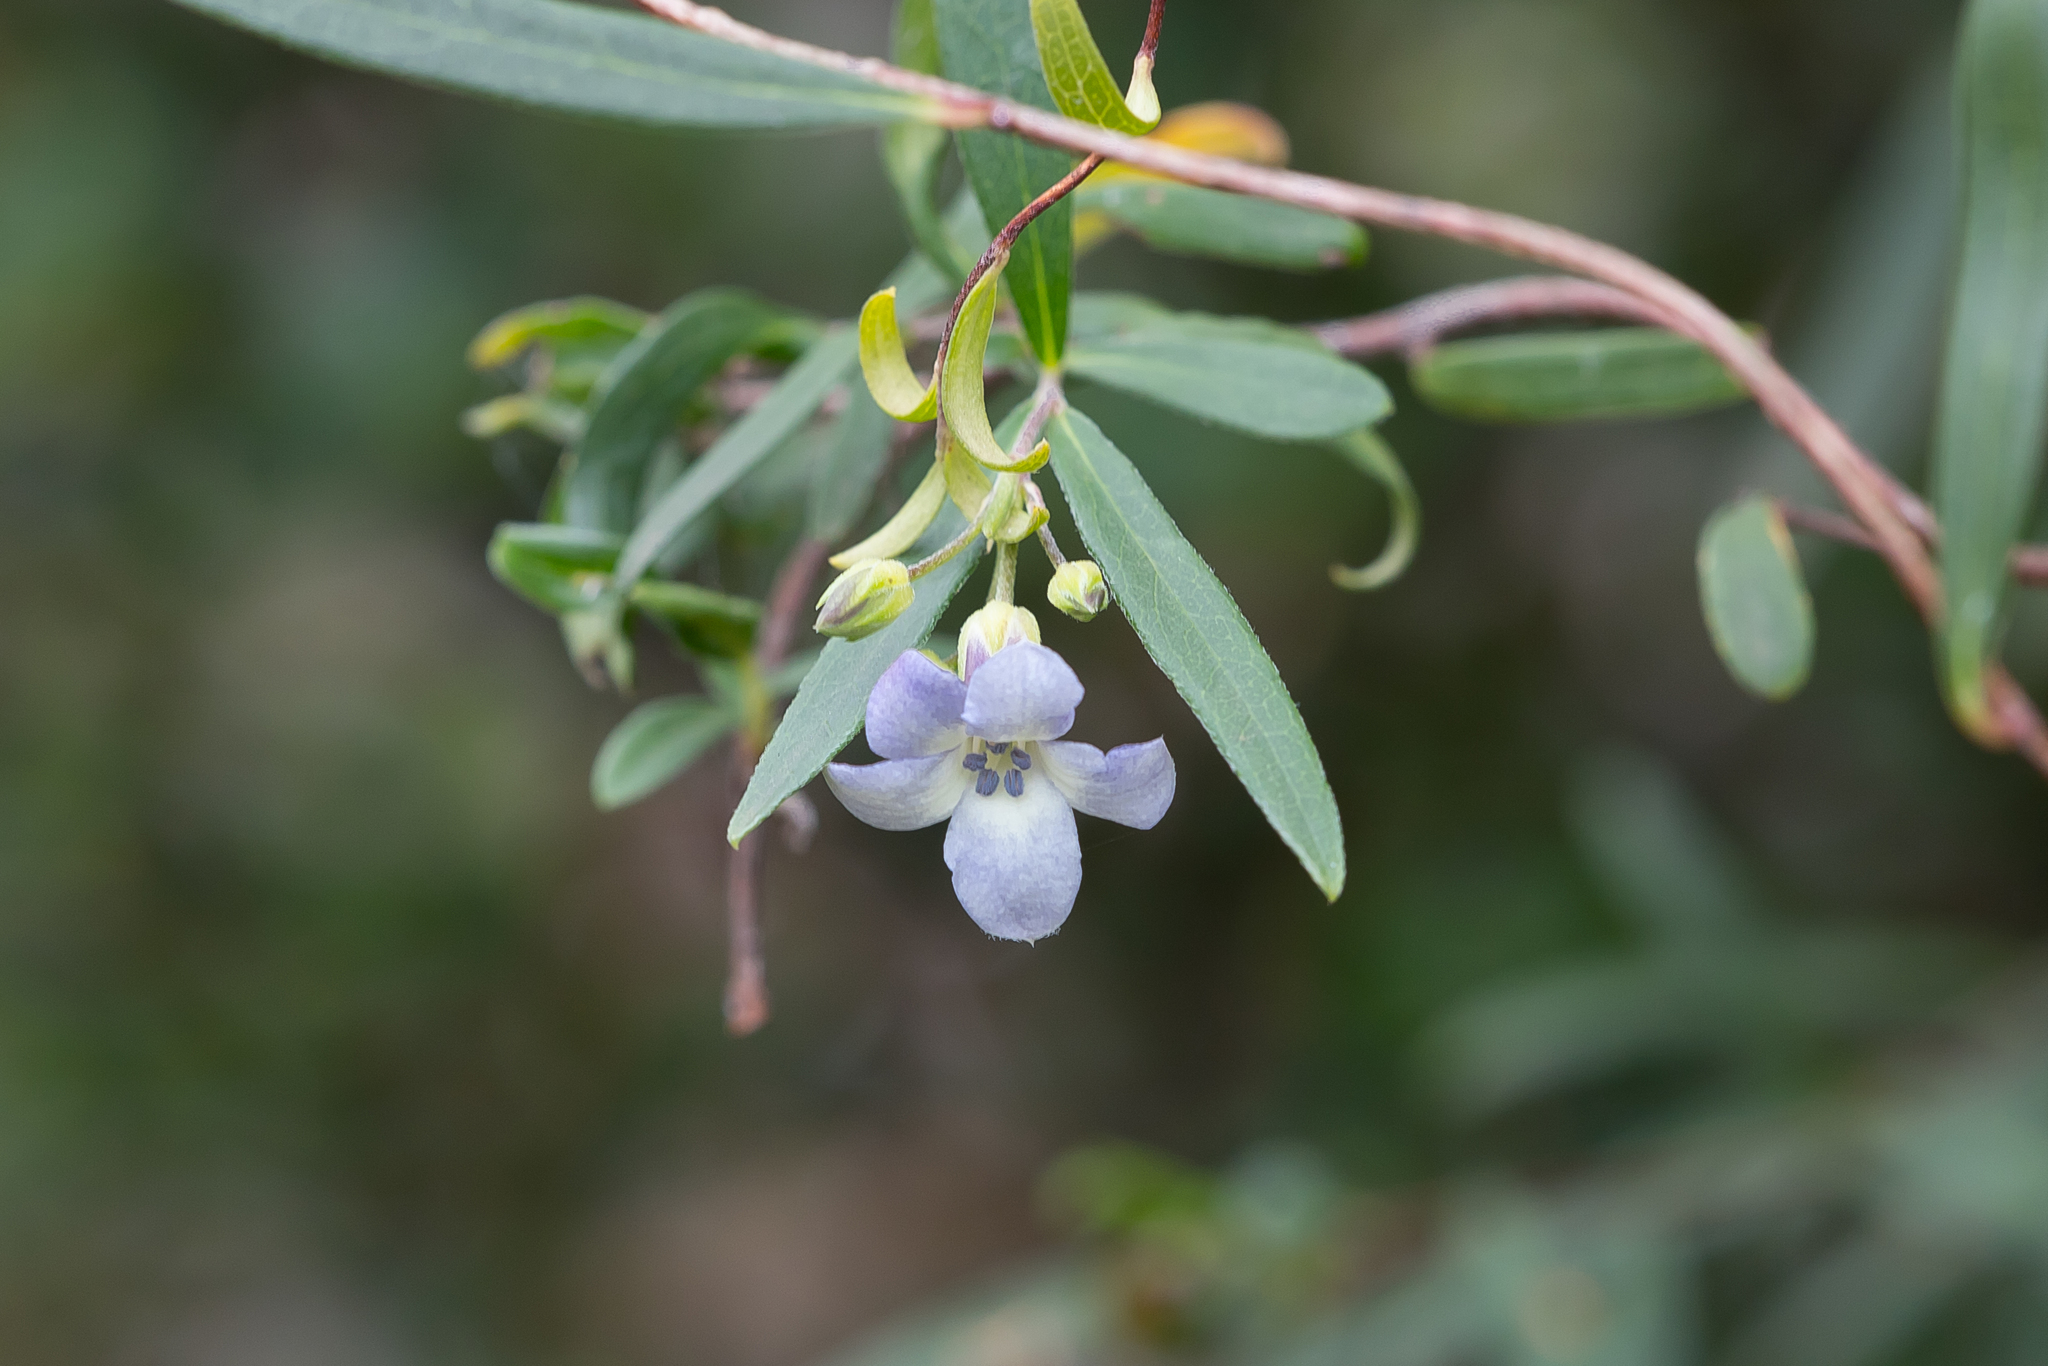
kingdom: Plantae
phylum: Tracheophyta
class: Magnoliopsida
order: Apiales
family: Pittosporaceae
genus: Billardiera
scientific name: Billardiera cymosa
